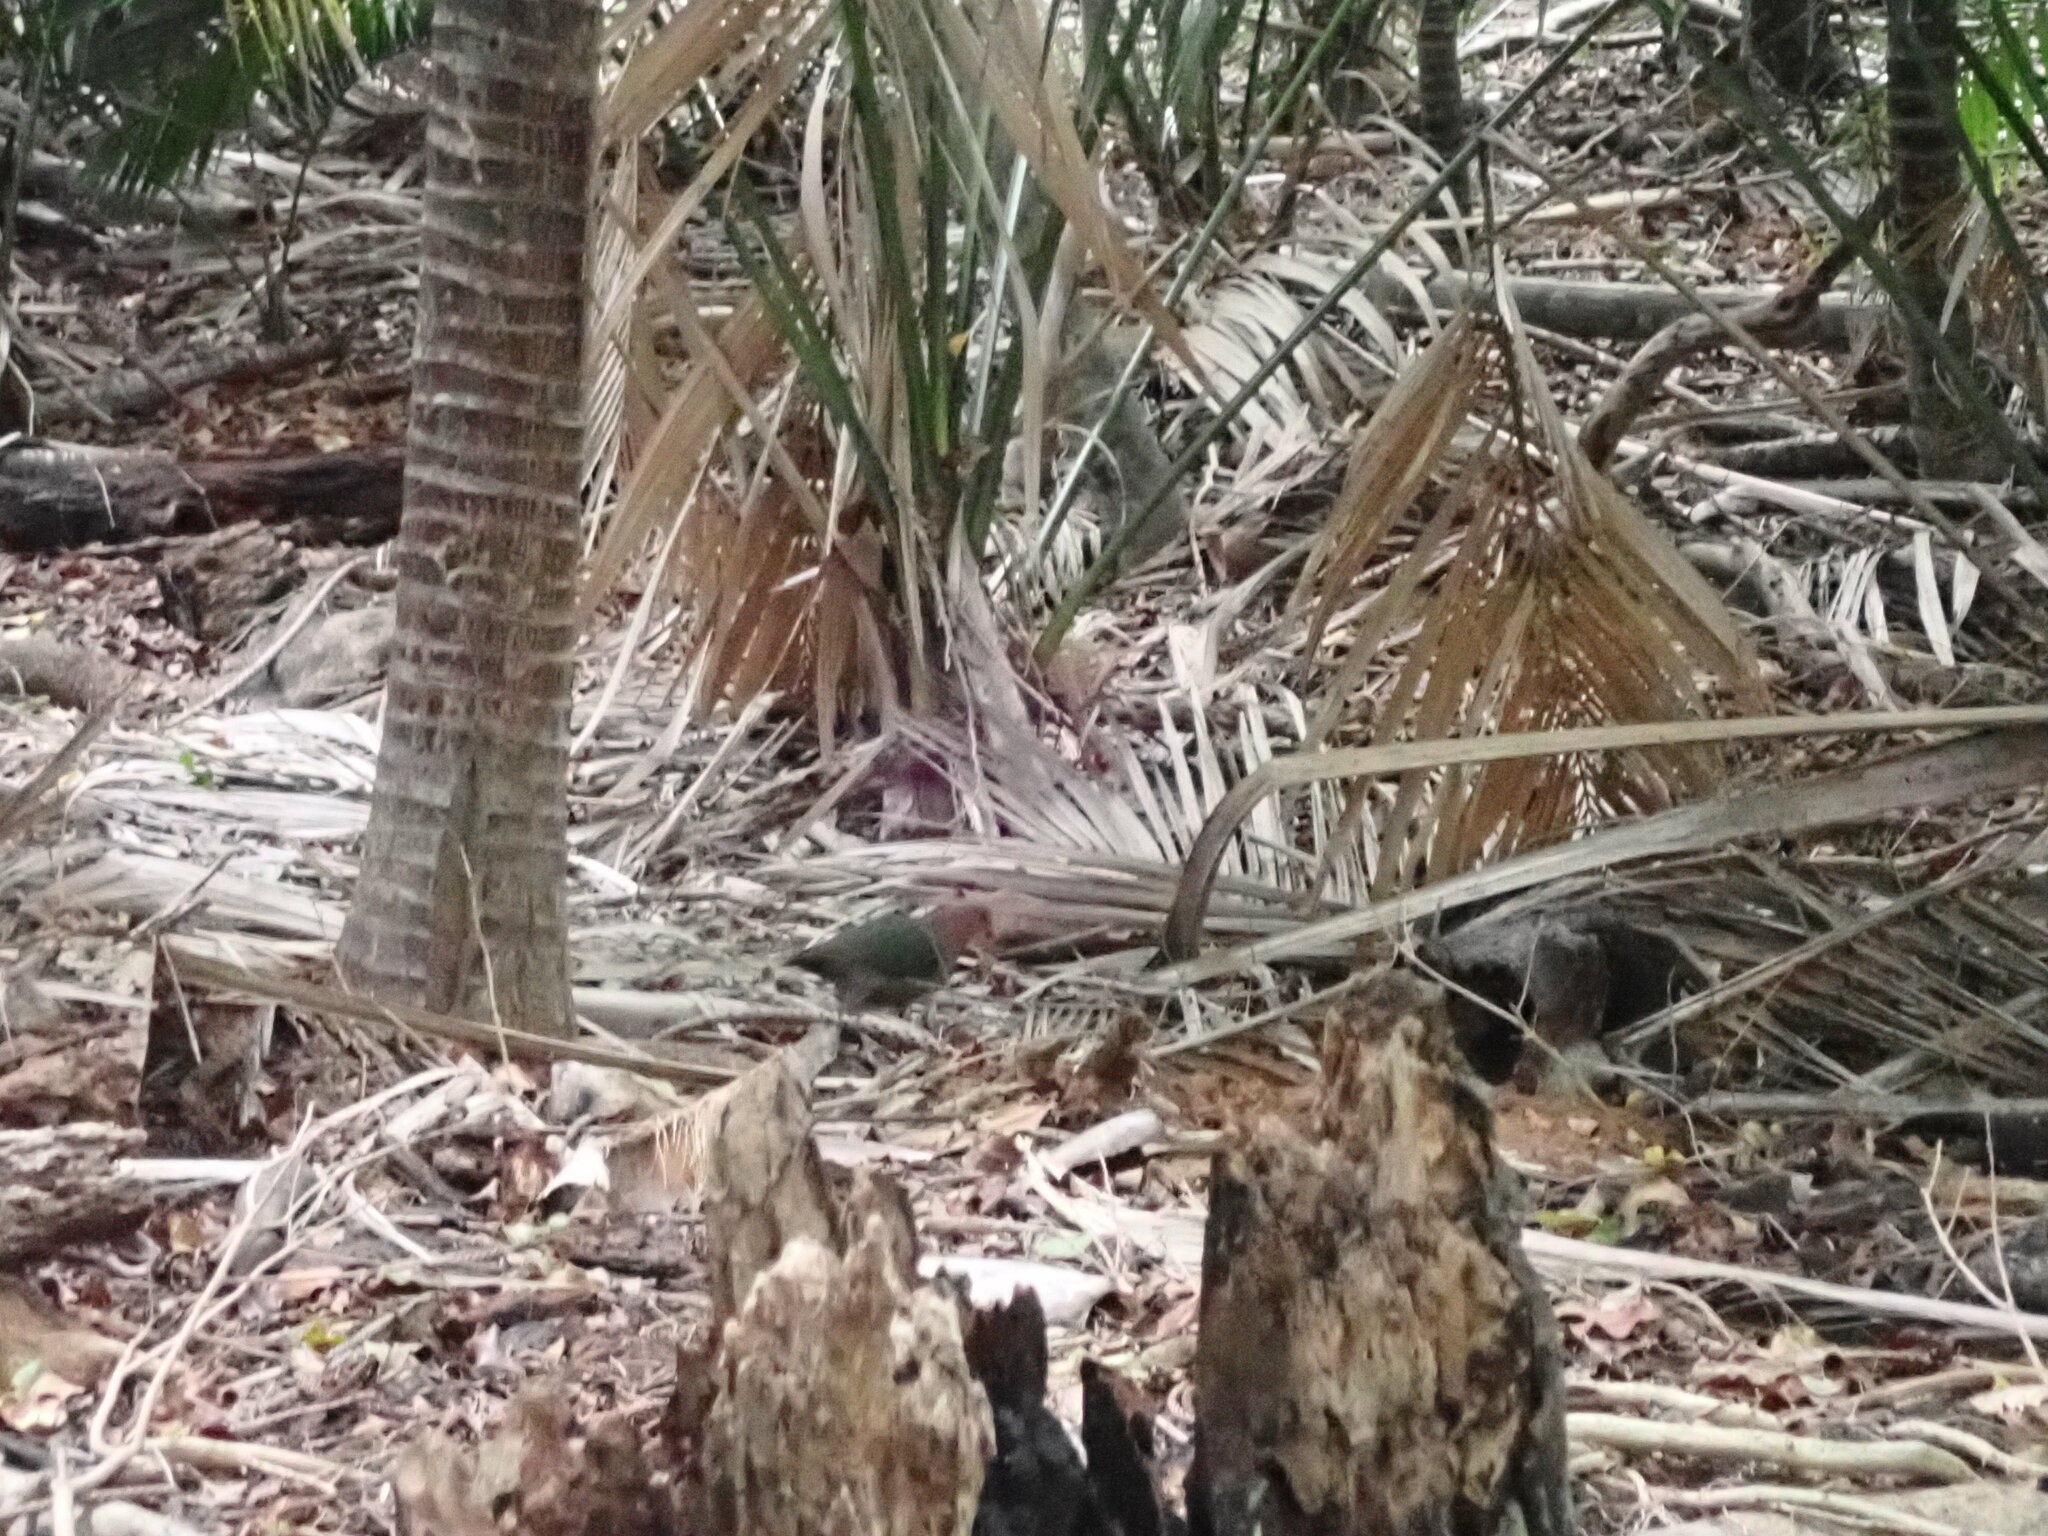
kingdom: Animalia
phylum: Chordata
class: Aves
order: Columbiformes
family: Columbidae
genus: Chalcophaps
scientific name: Chalcophaps longirostris
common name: Pacific emerald dove
